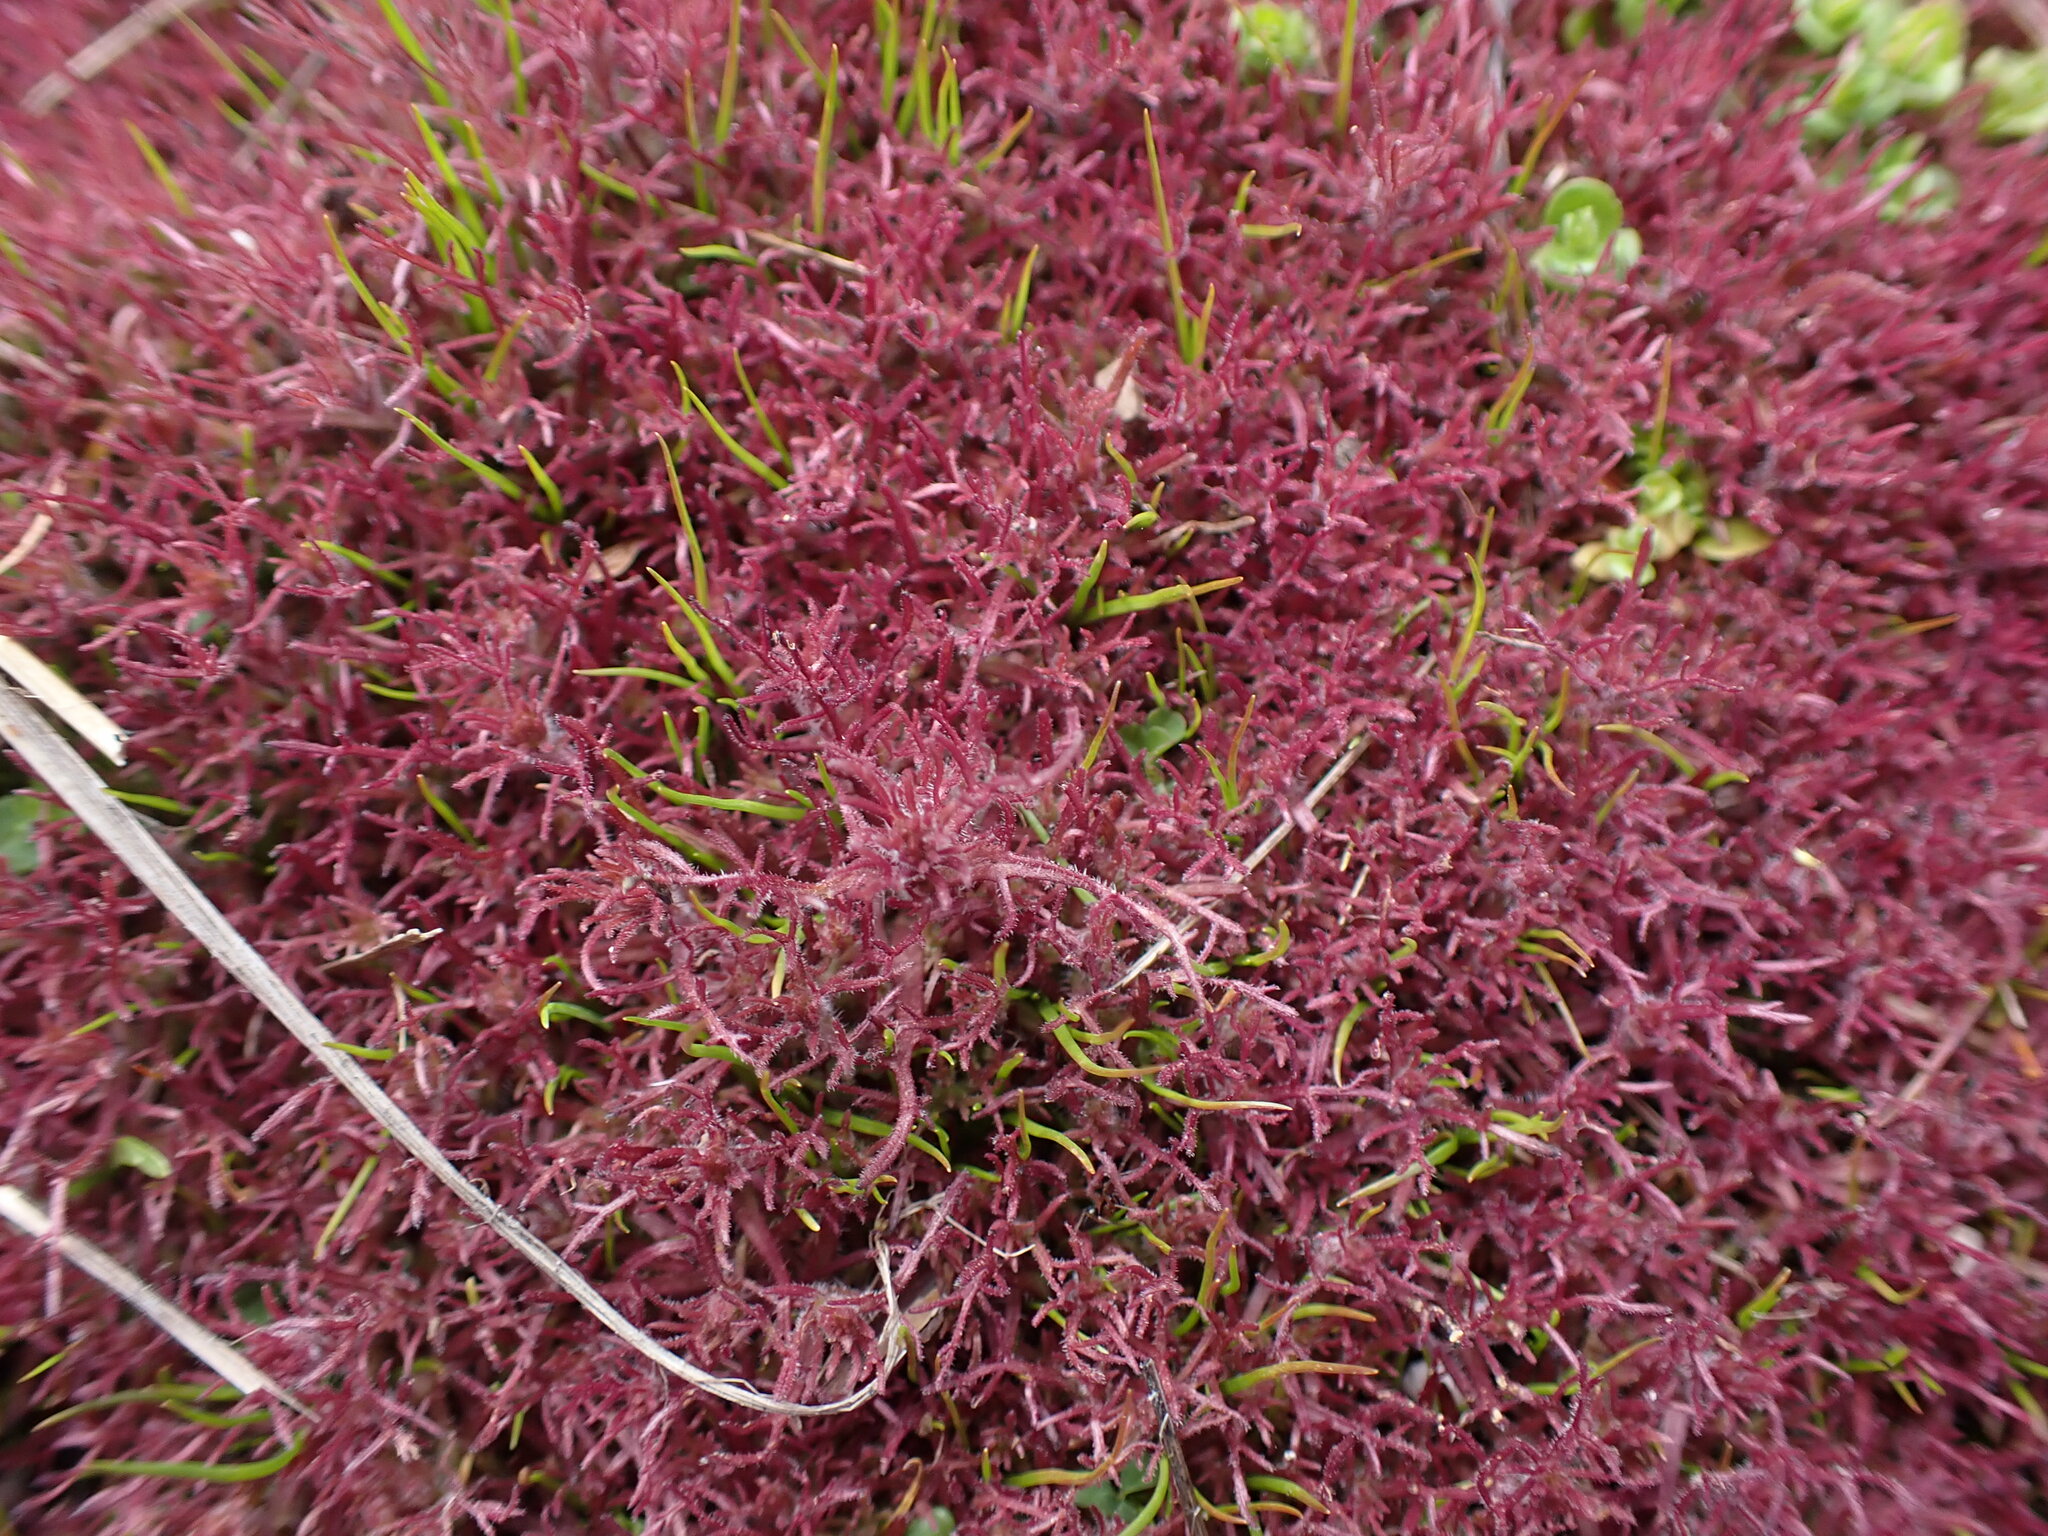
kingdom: Plantae
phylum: Tracheophyta
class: Magnoliopsida
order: Lamiales
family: Orobanchaceae
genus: Triphysaria
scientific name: Triphysaria pusilla
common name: Dwarf false owl-clover
